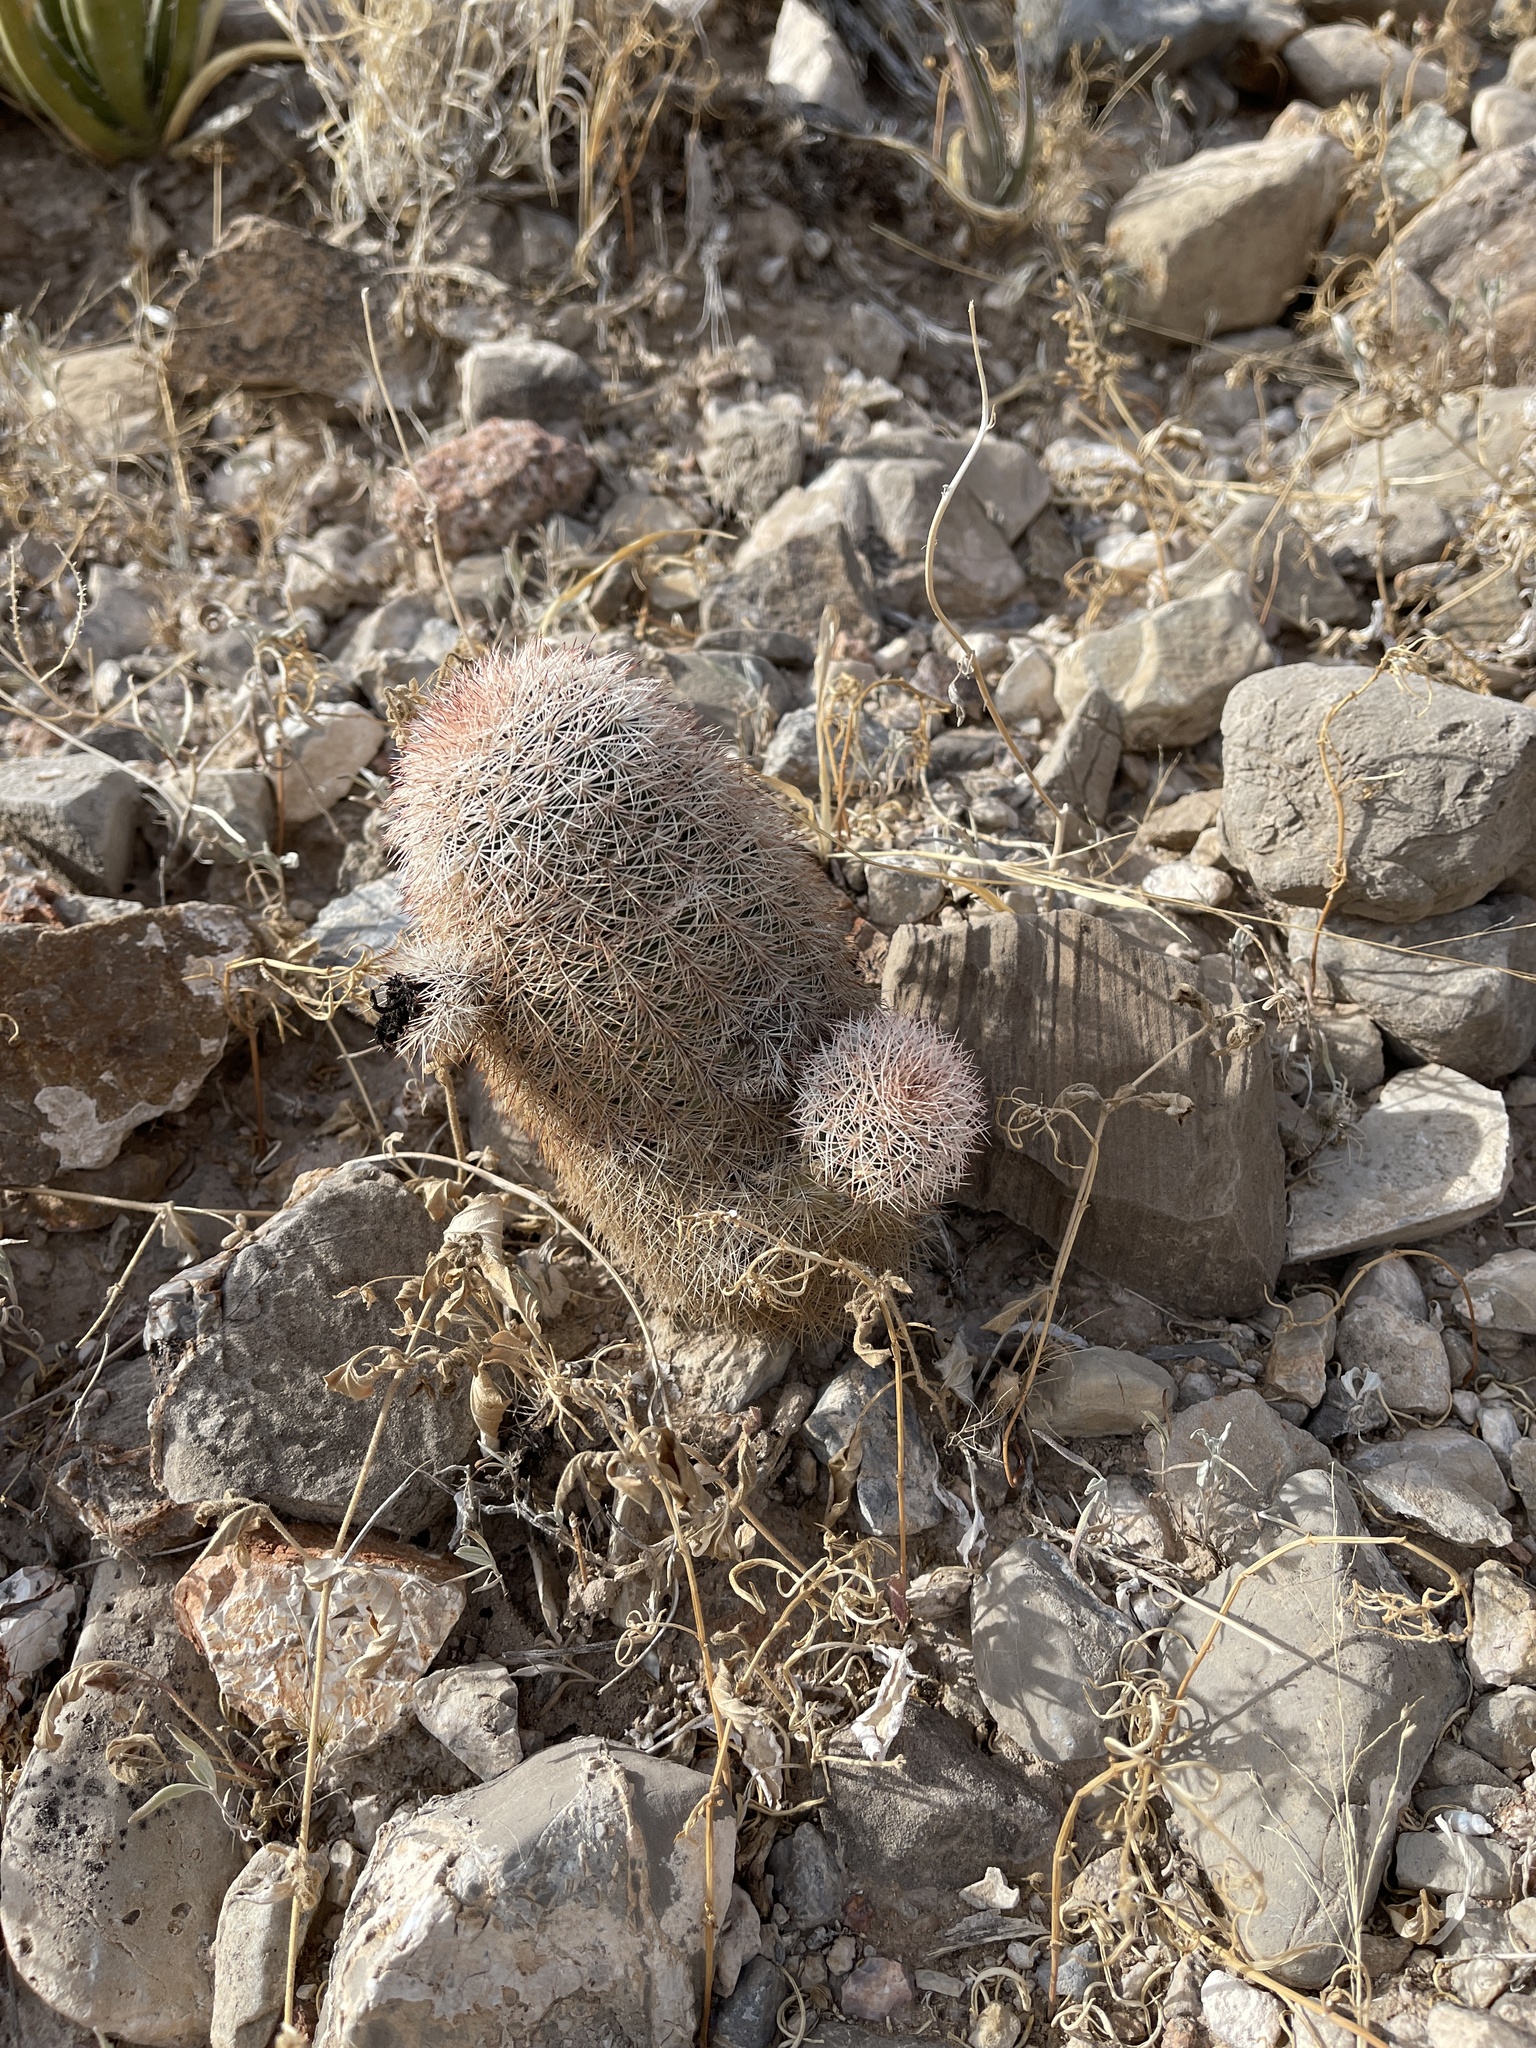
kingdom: Plantae
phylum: Tracheophyta
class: Magnoliopsida
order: Caryophyllales
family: Cactaceae
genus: Echinocereus
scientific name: Echinocereus dasyacanthus
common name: Spiny hedgehog cactus
